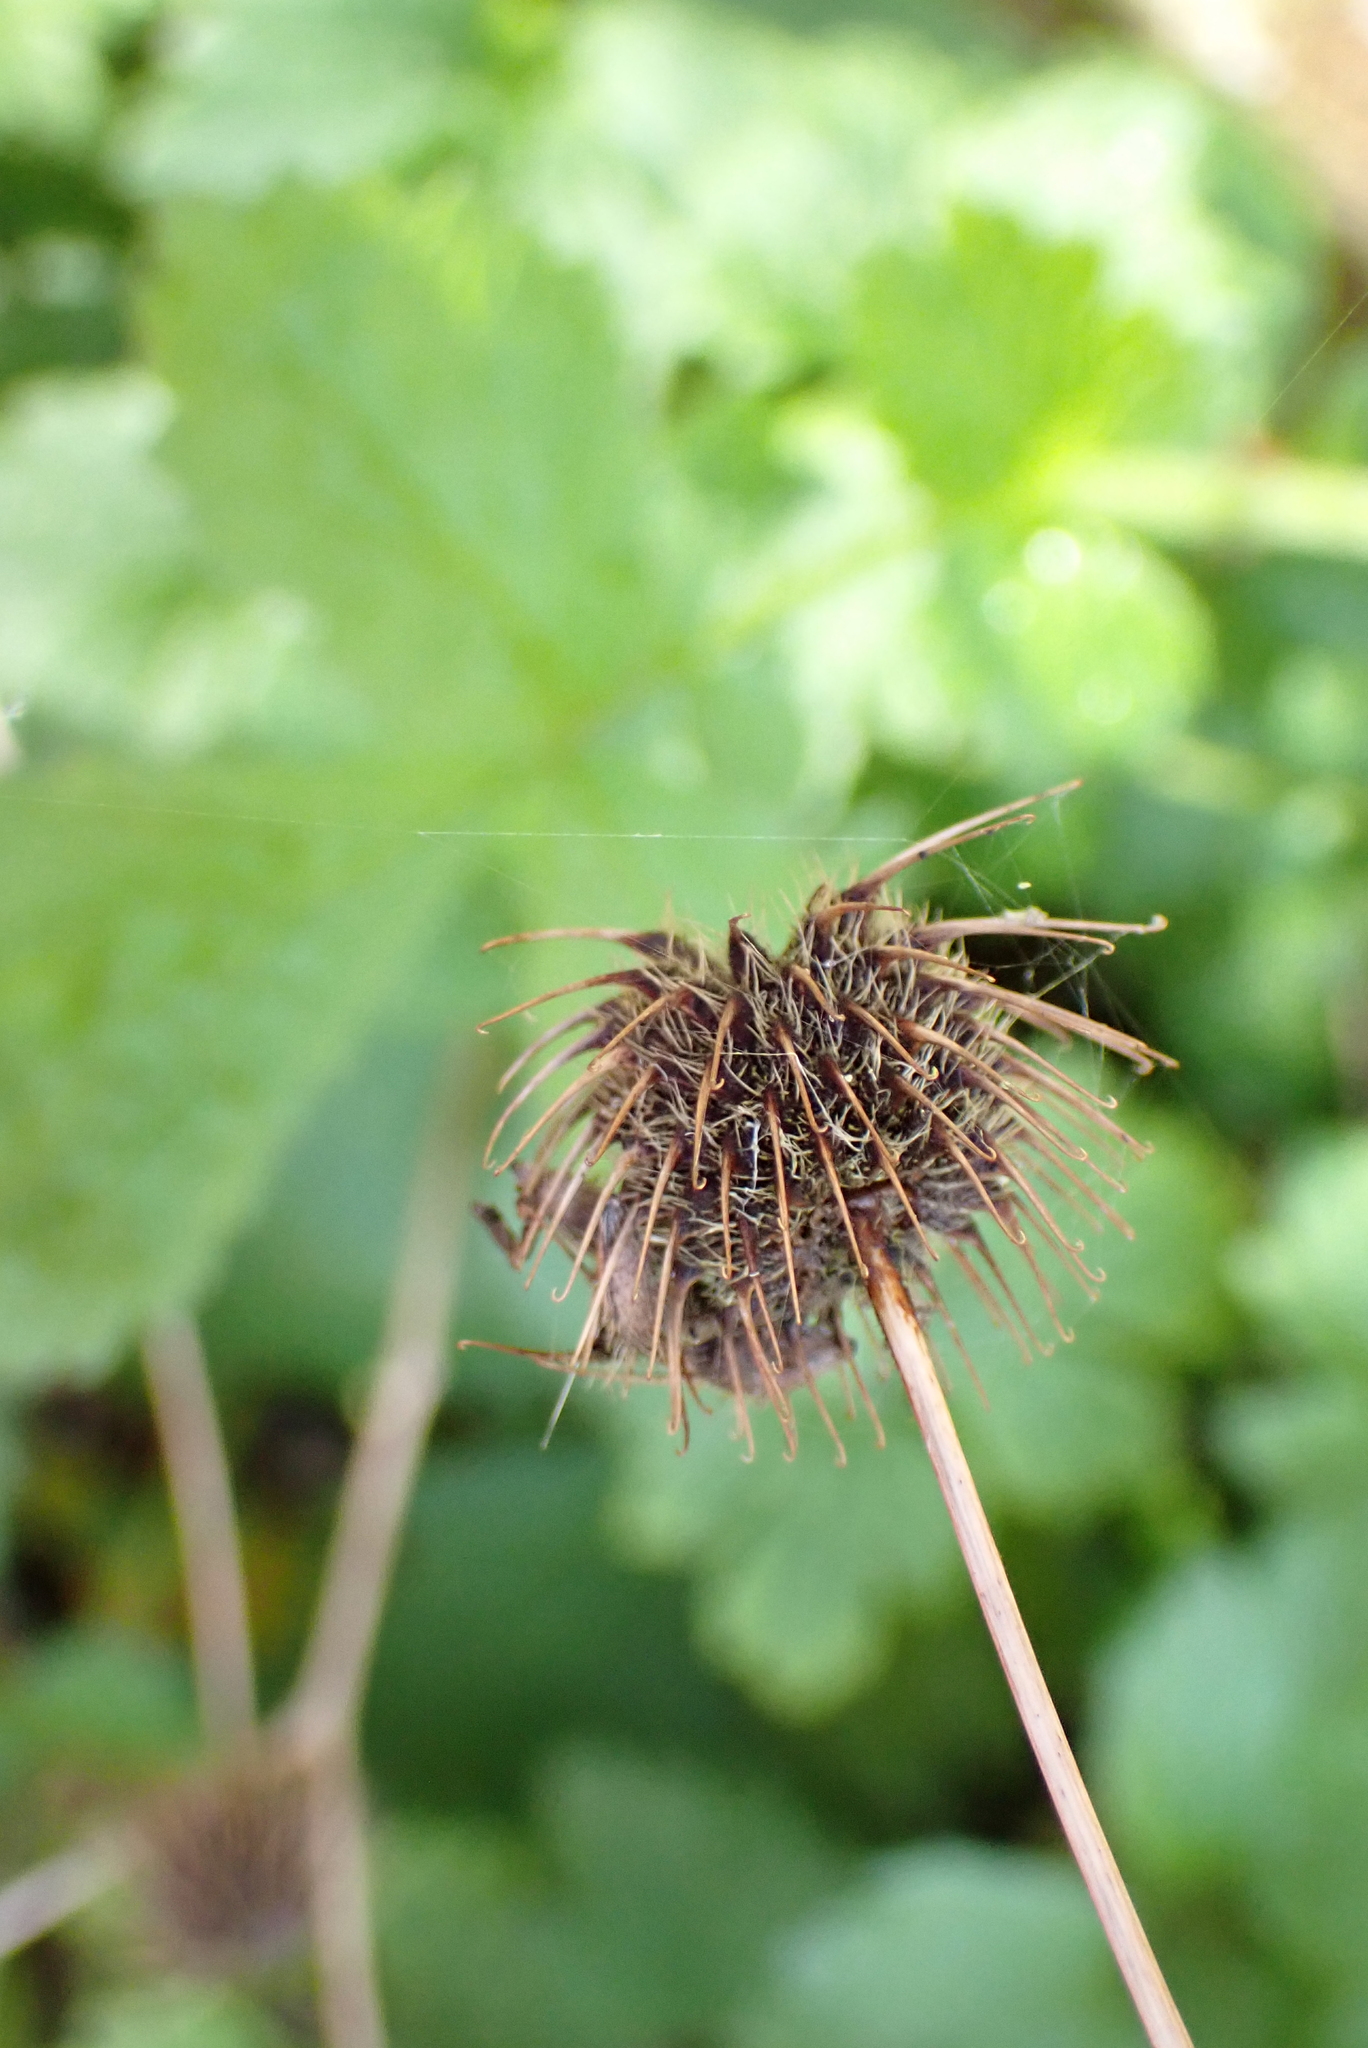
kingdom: Plantae
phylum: Tracheophyta
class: Magnoliopsida
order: Rosales
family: Rosaceae
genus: Geum
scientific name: Geum urbanum
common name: Wood avens
